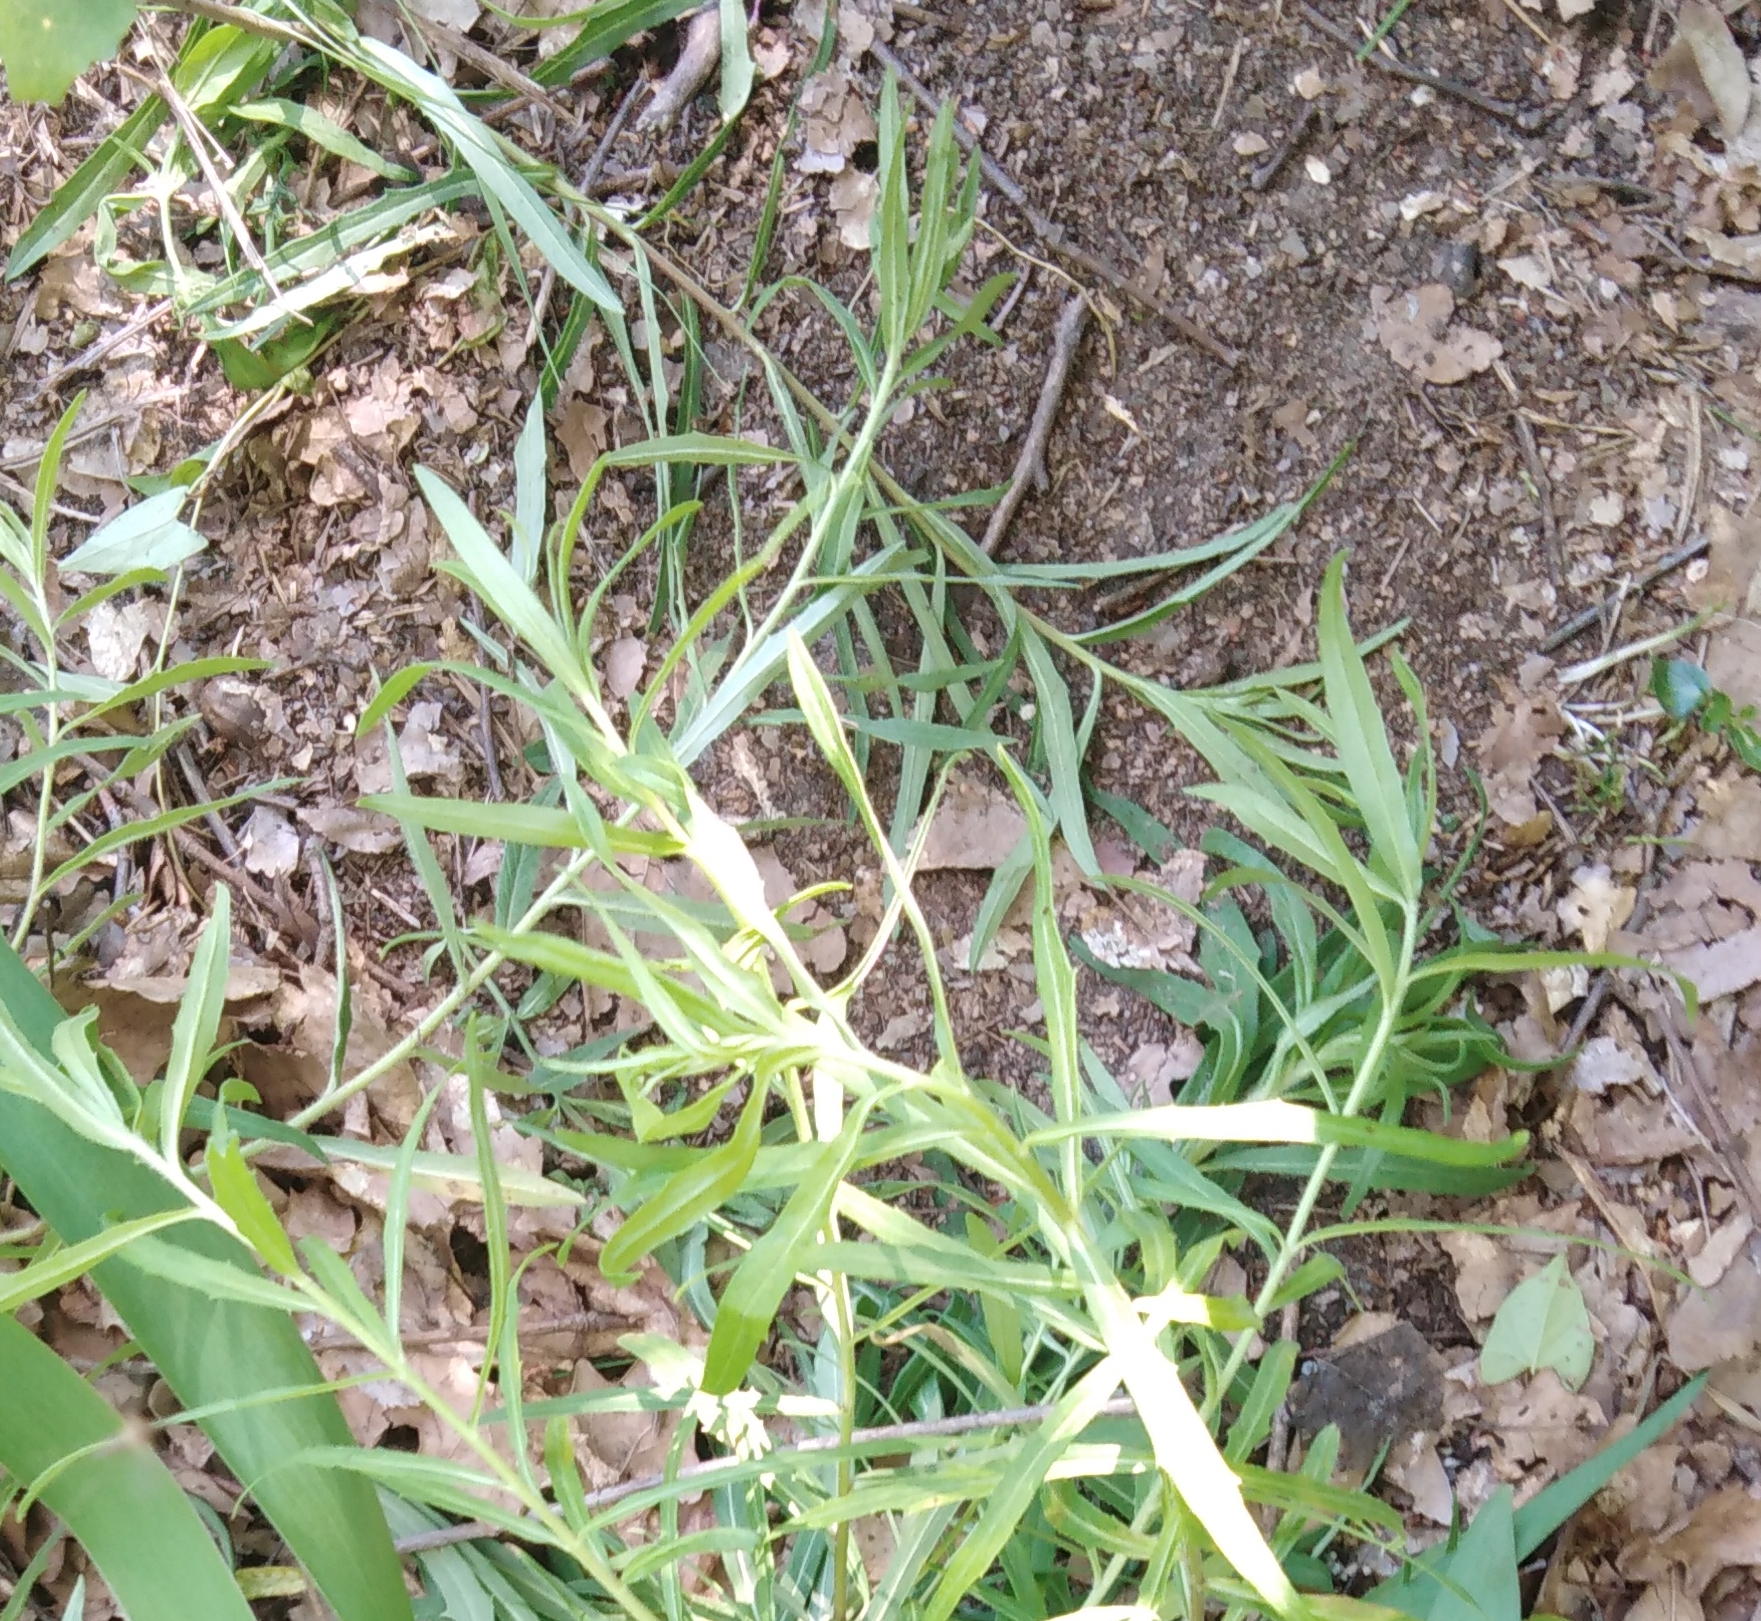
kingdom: Plantae
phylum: Tracheophyta
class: Magnoliopsida
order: Asterales
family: Asteraceae
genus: Hieracium
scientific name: Hieracium umbellatum
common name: Northern hawkweed
